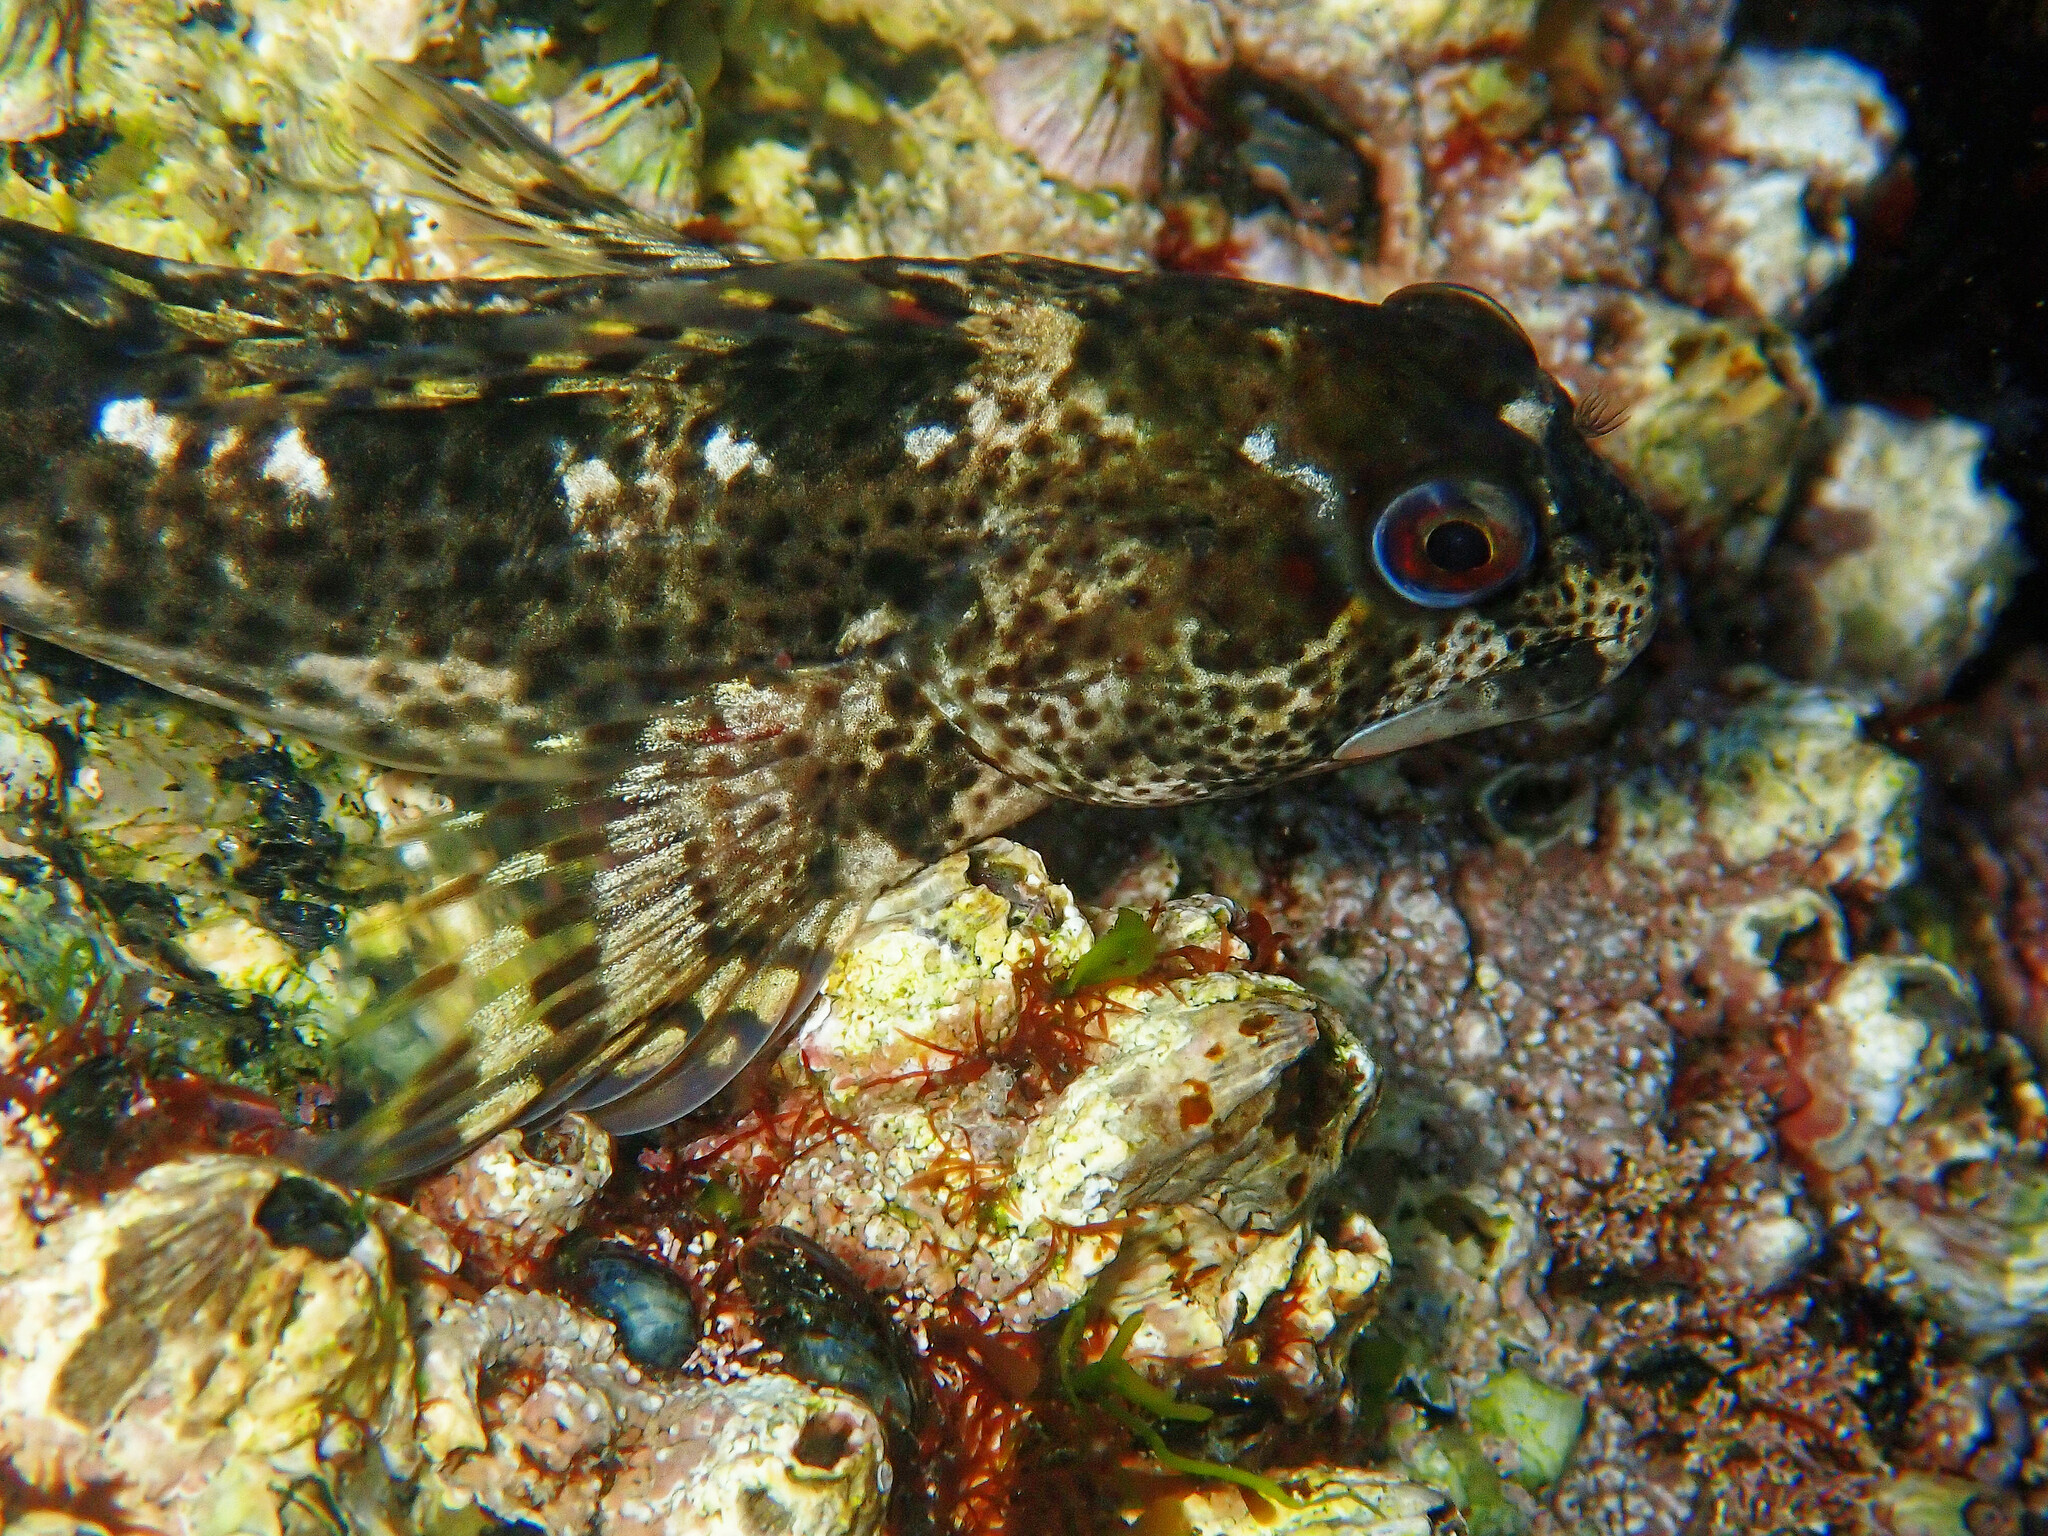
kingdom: Animalia
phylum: Chordata
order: Perciformes
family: Blenniidae
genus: Lipophrys
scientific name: Lipophrys pholis
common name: Shanny
